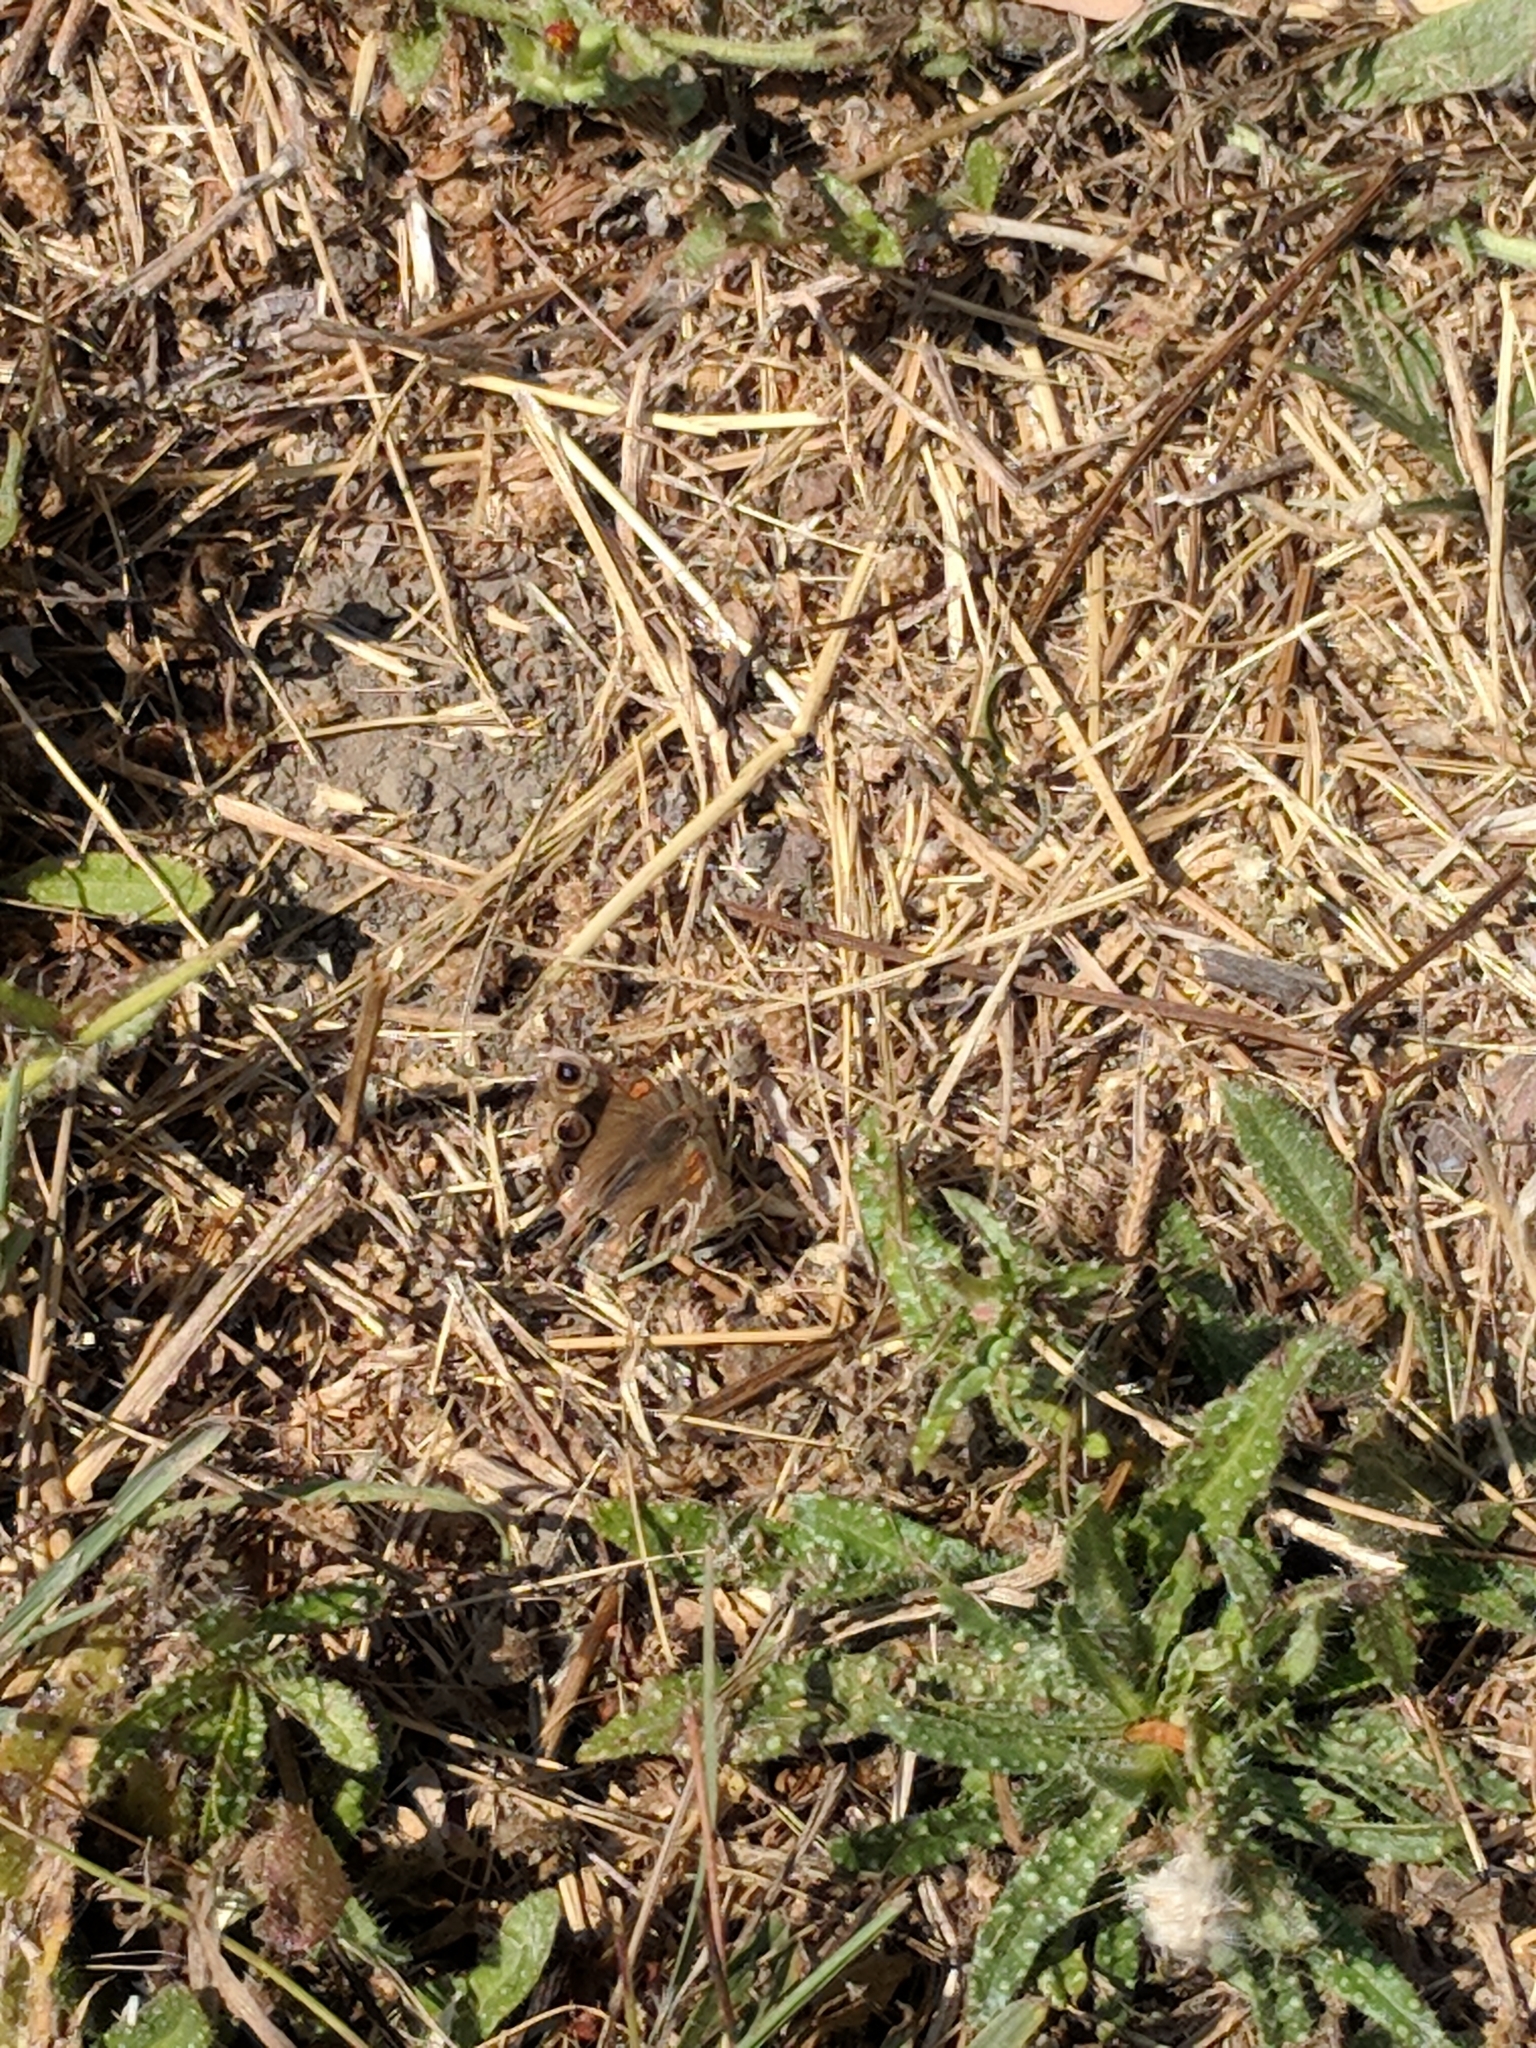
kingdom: Animalia
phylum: Arthropoda
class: Insecta
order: Lepidoptera
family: Nymphalidae
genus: Junonia
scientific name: Junonia grisea
